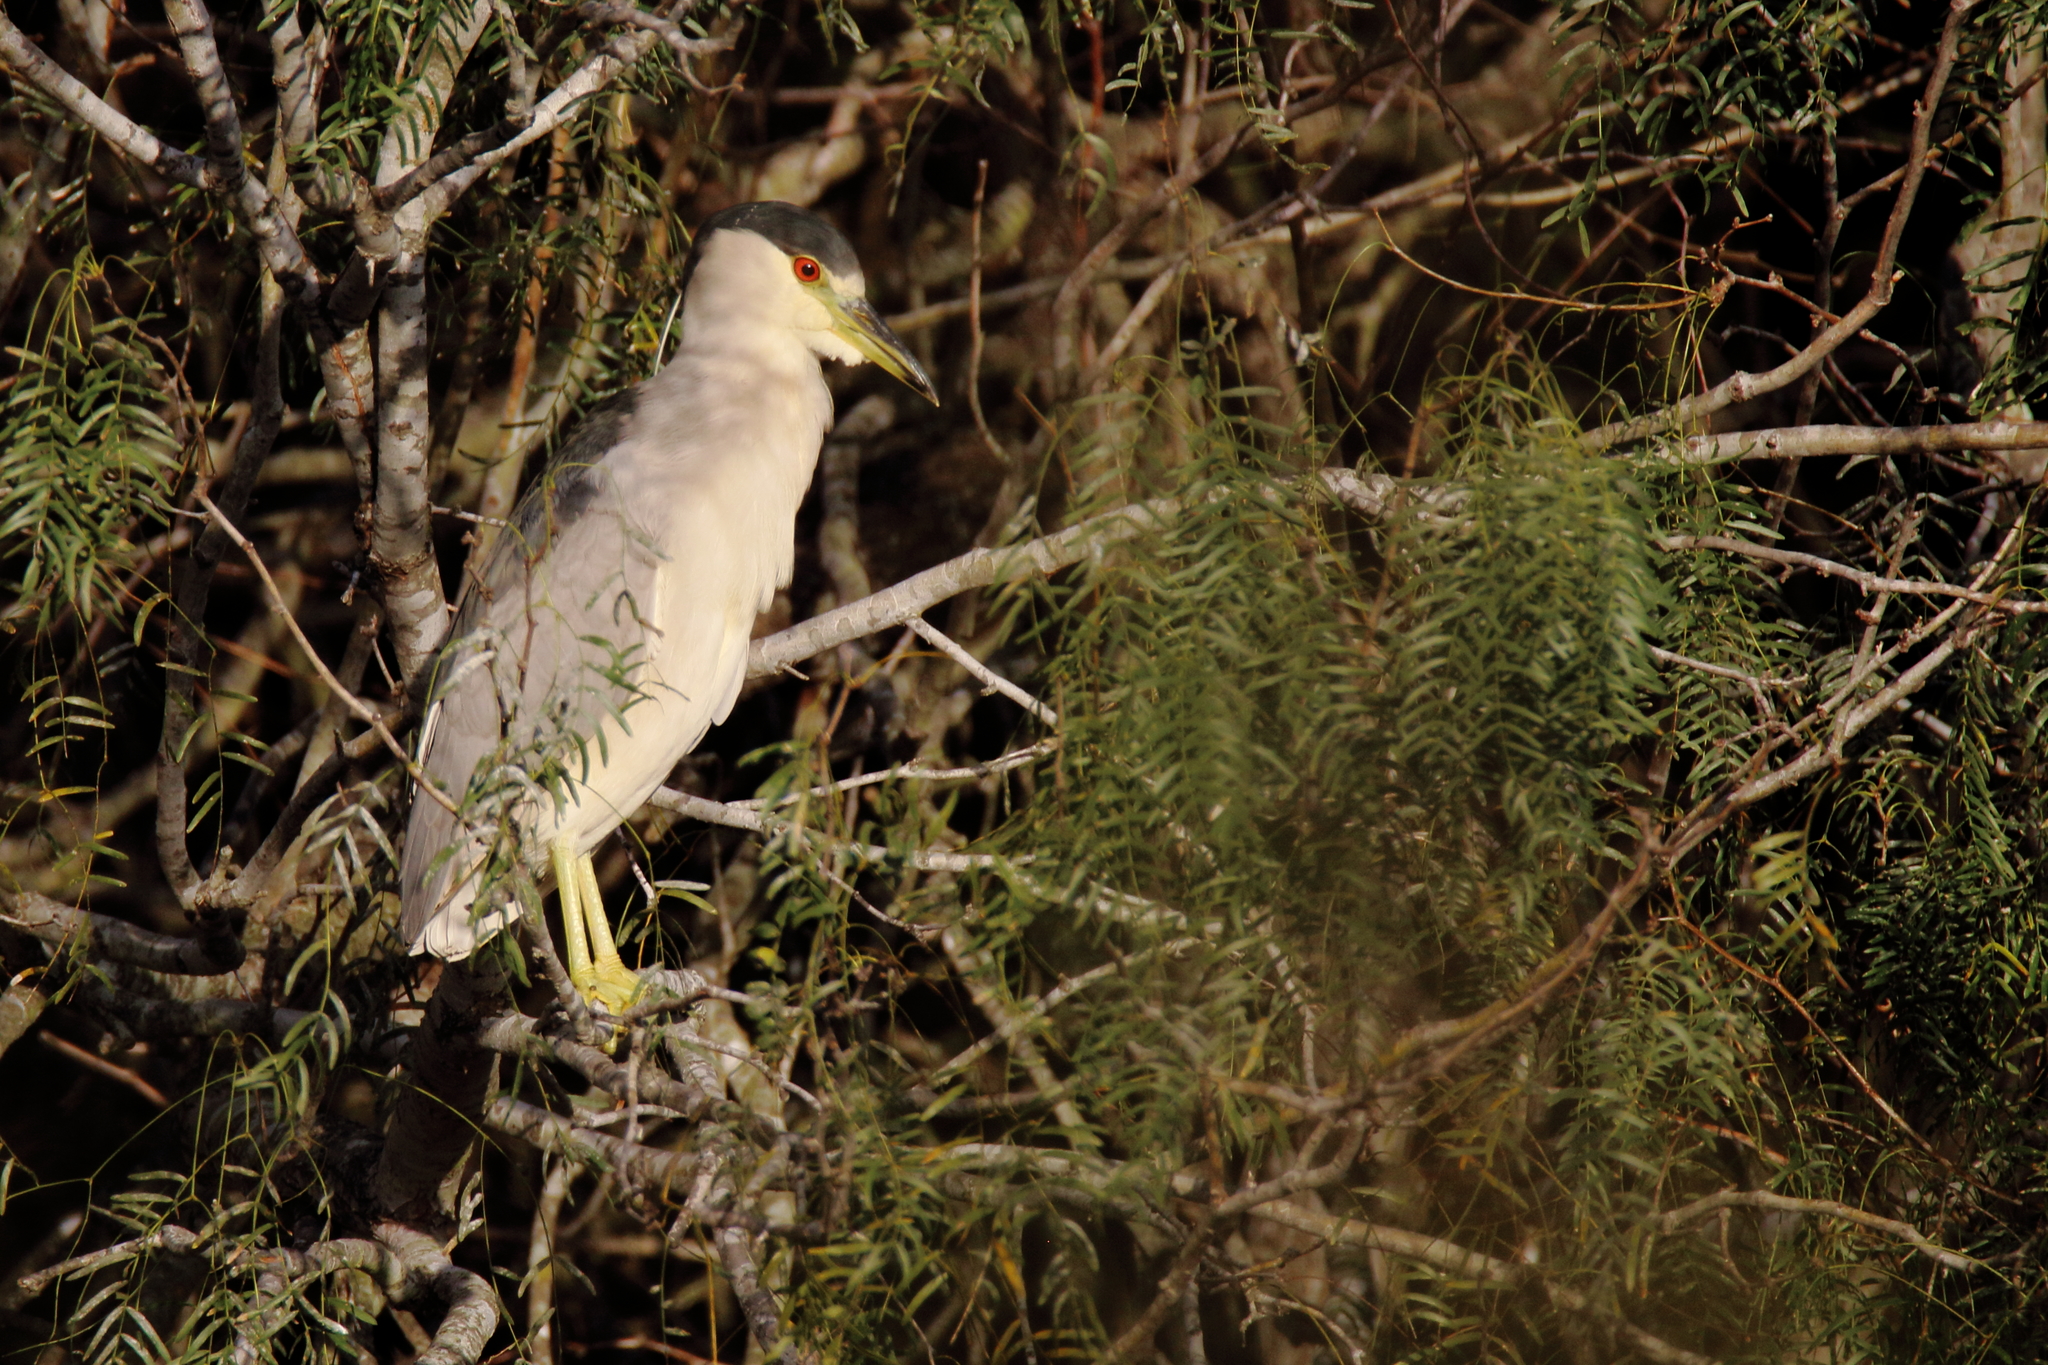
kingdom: Animalia
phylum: Chordata
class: Aves
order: Pelecaniformes
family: Ardeidae
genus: Nycticorax
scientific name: Nycticorax nycticorax
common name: Black-crowned night heron
